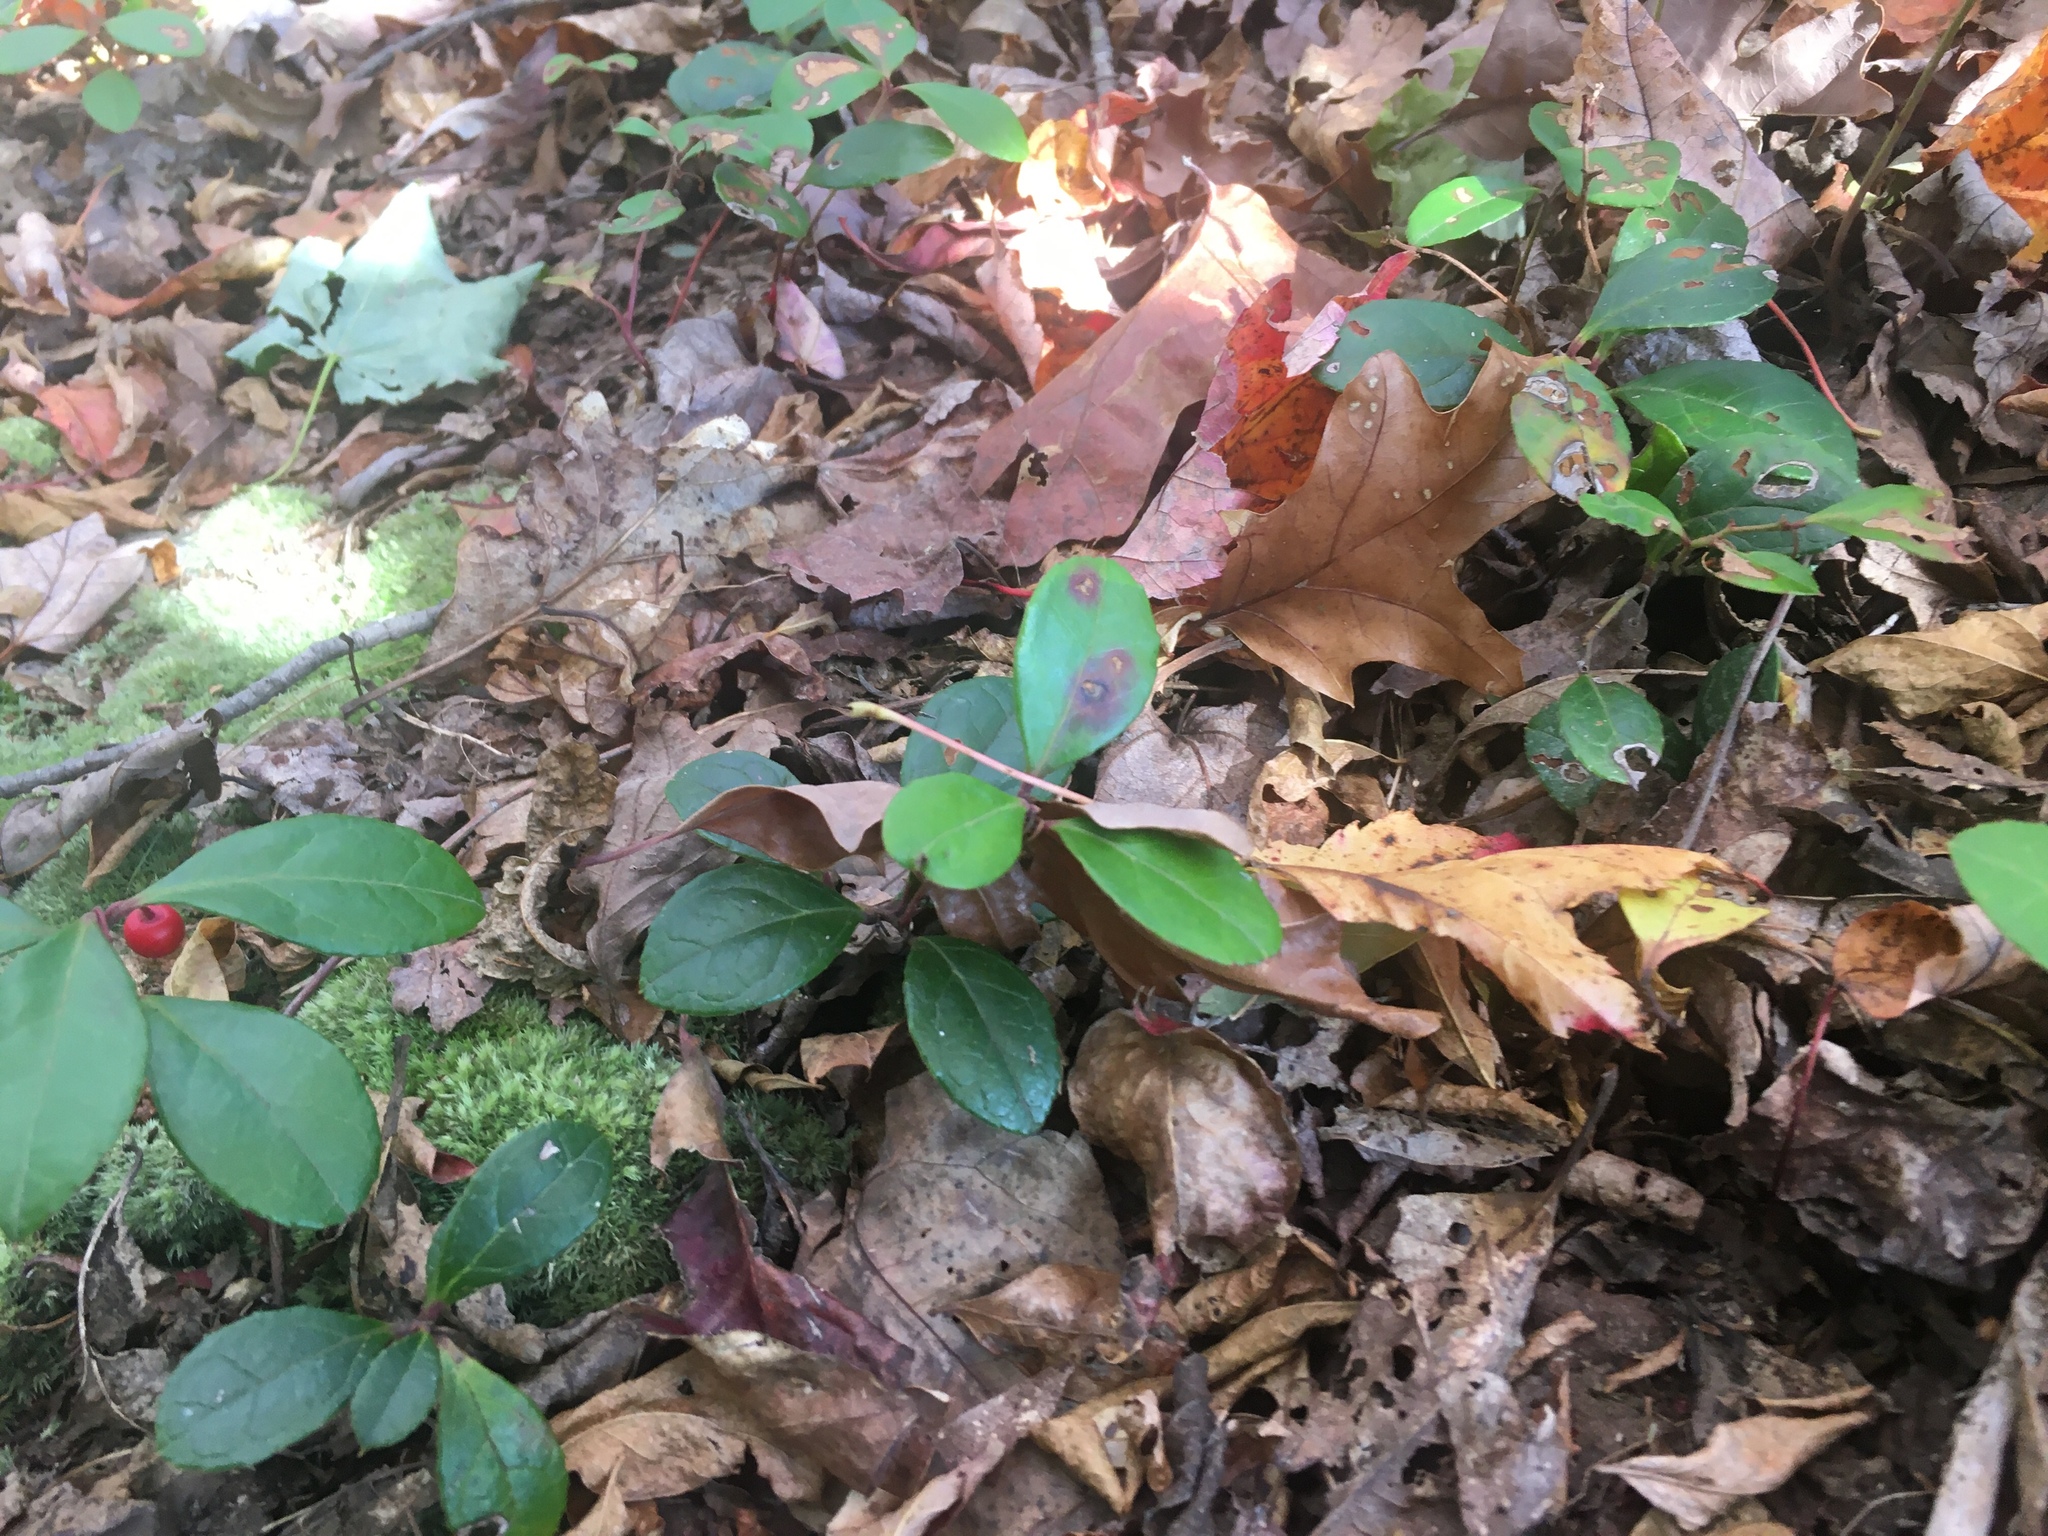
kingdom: Plantae
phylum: Tracheophyta
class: Magnoliopsida
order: Ericales
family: Ericaceae
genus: Gaultheria
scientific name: Gaultheria procumbens
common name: Checkerberry
